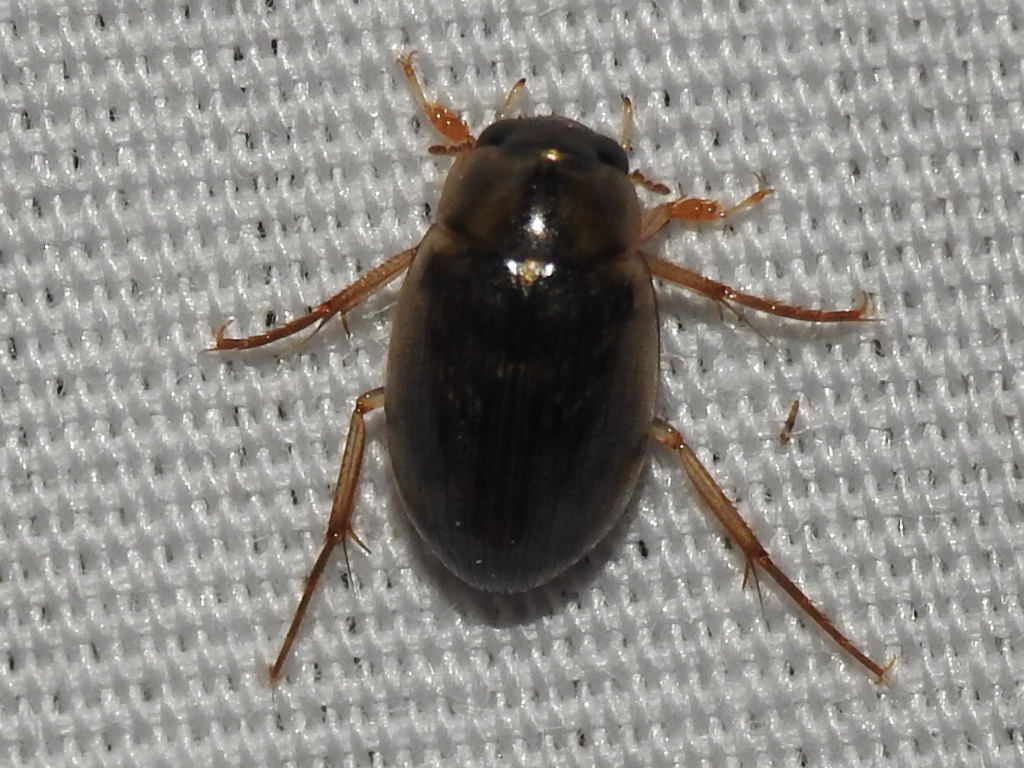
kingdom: Animalia
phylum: Arthropoda
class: Insecta
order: Coleoptera
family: Hydrophilidae
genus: Berosus
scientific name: Berosus
